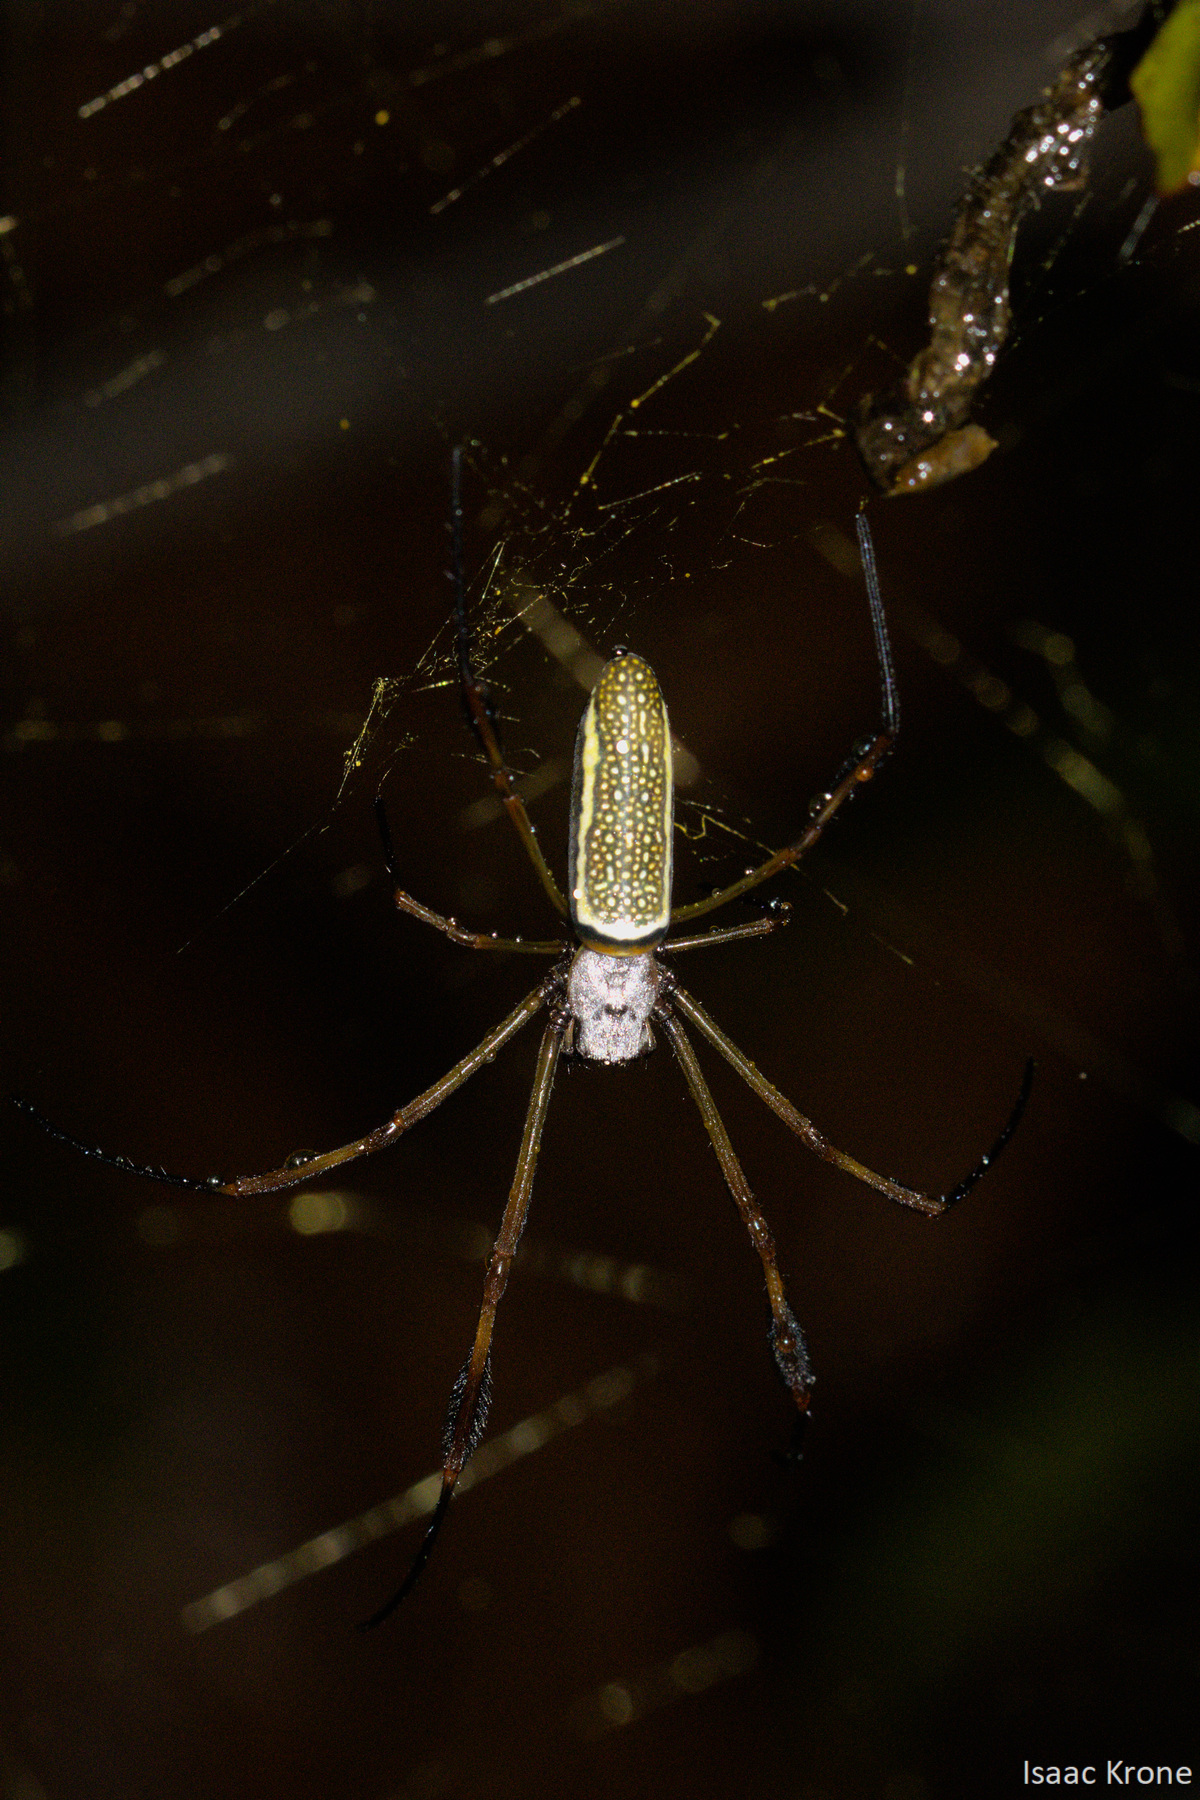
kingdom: Animalia
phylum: Arthropoda
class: Arachnida
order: Araneae
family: Araneidae
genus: Trichonephila
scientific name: Trichonephila clavipes
